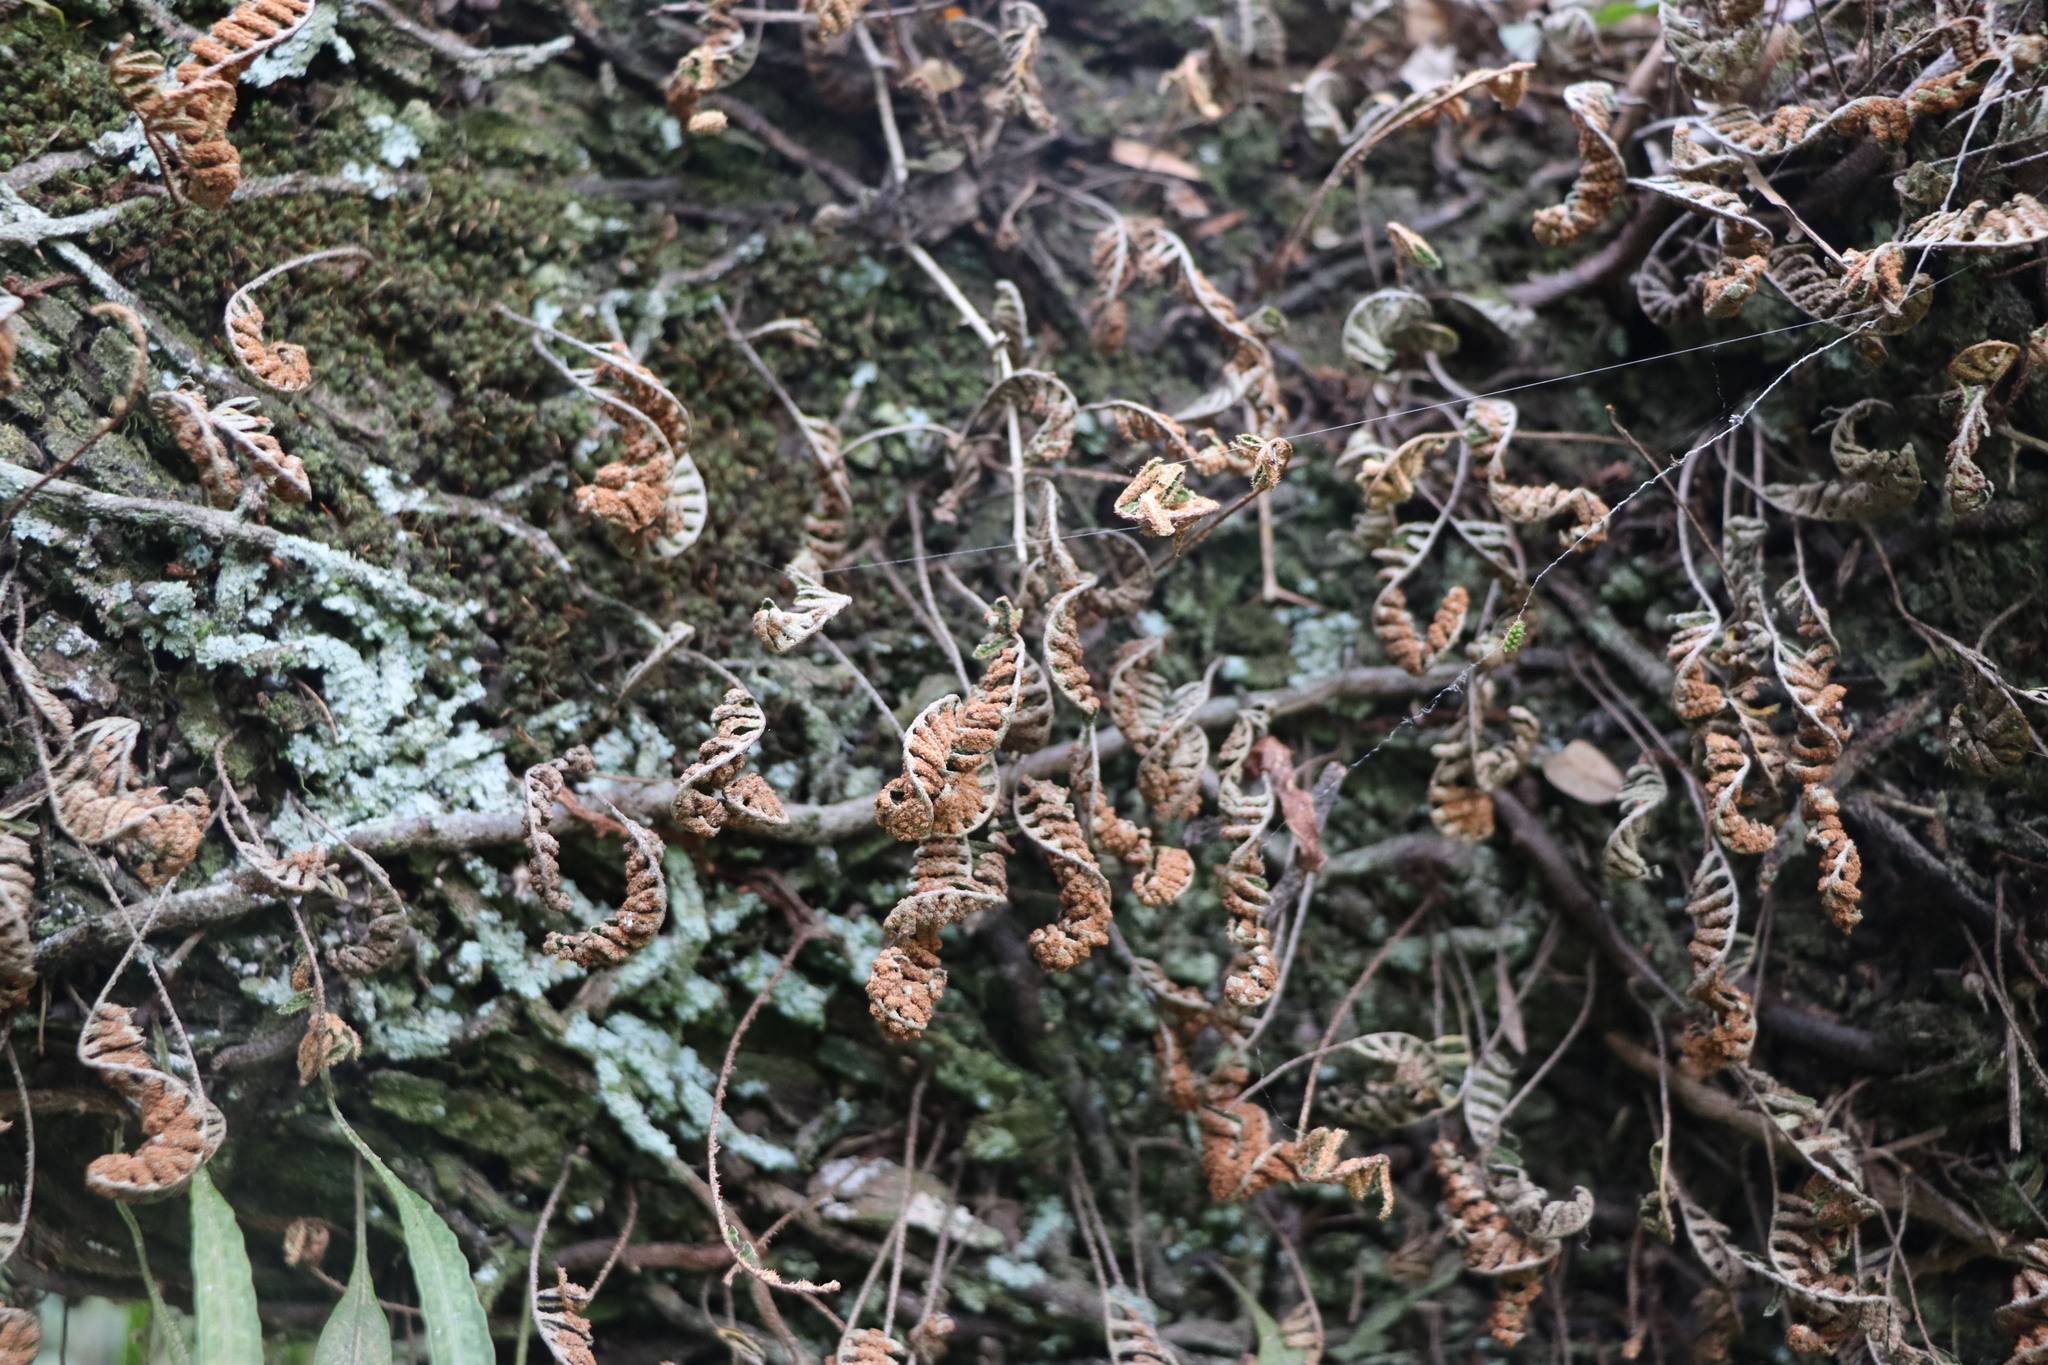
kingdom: Plantae
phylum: Tracheophyta
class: Polypodiopsida
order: Polypodiales
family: Polypodiaceae
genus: Pleopeltis
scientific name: Pleopeltis minima
